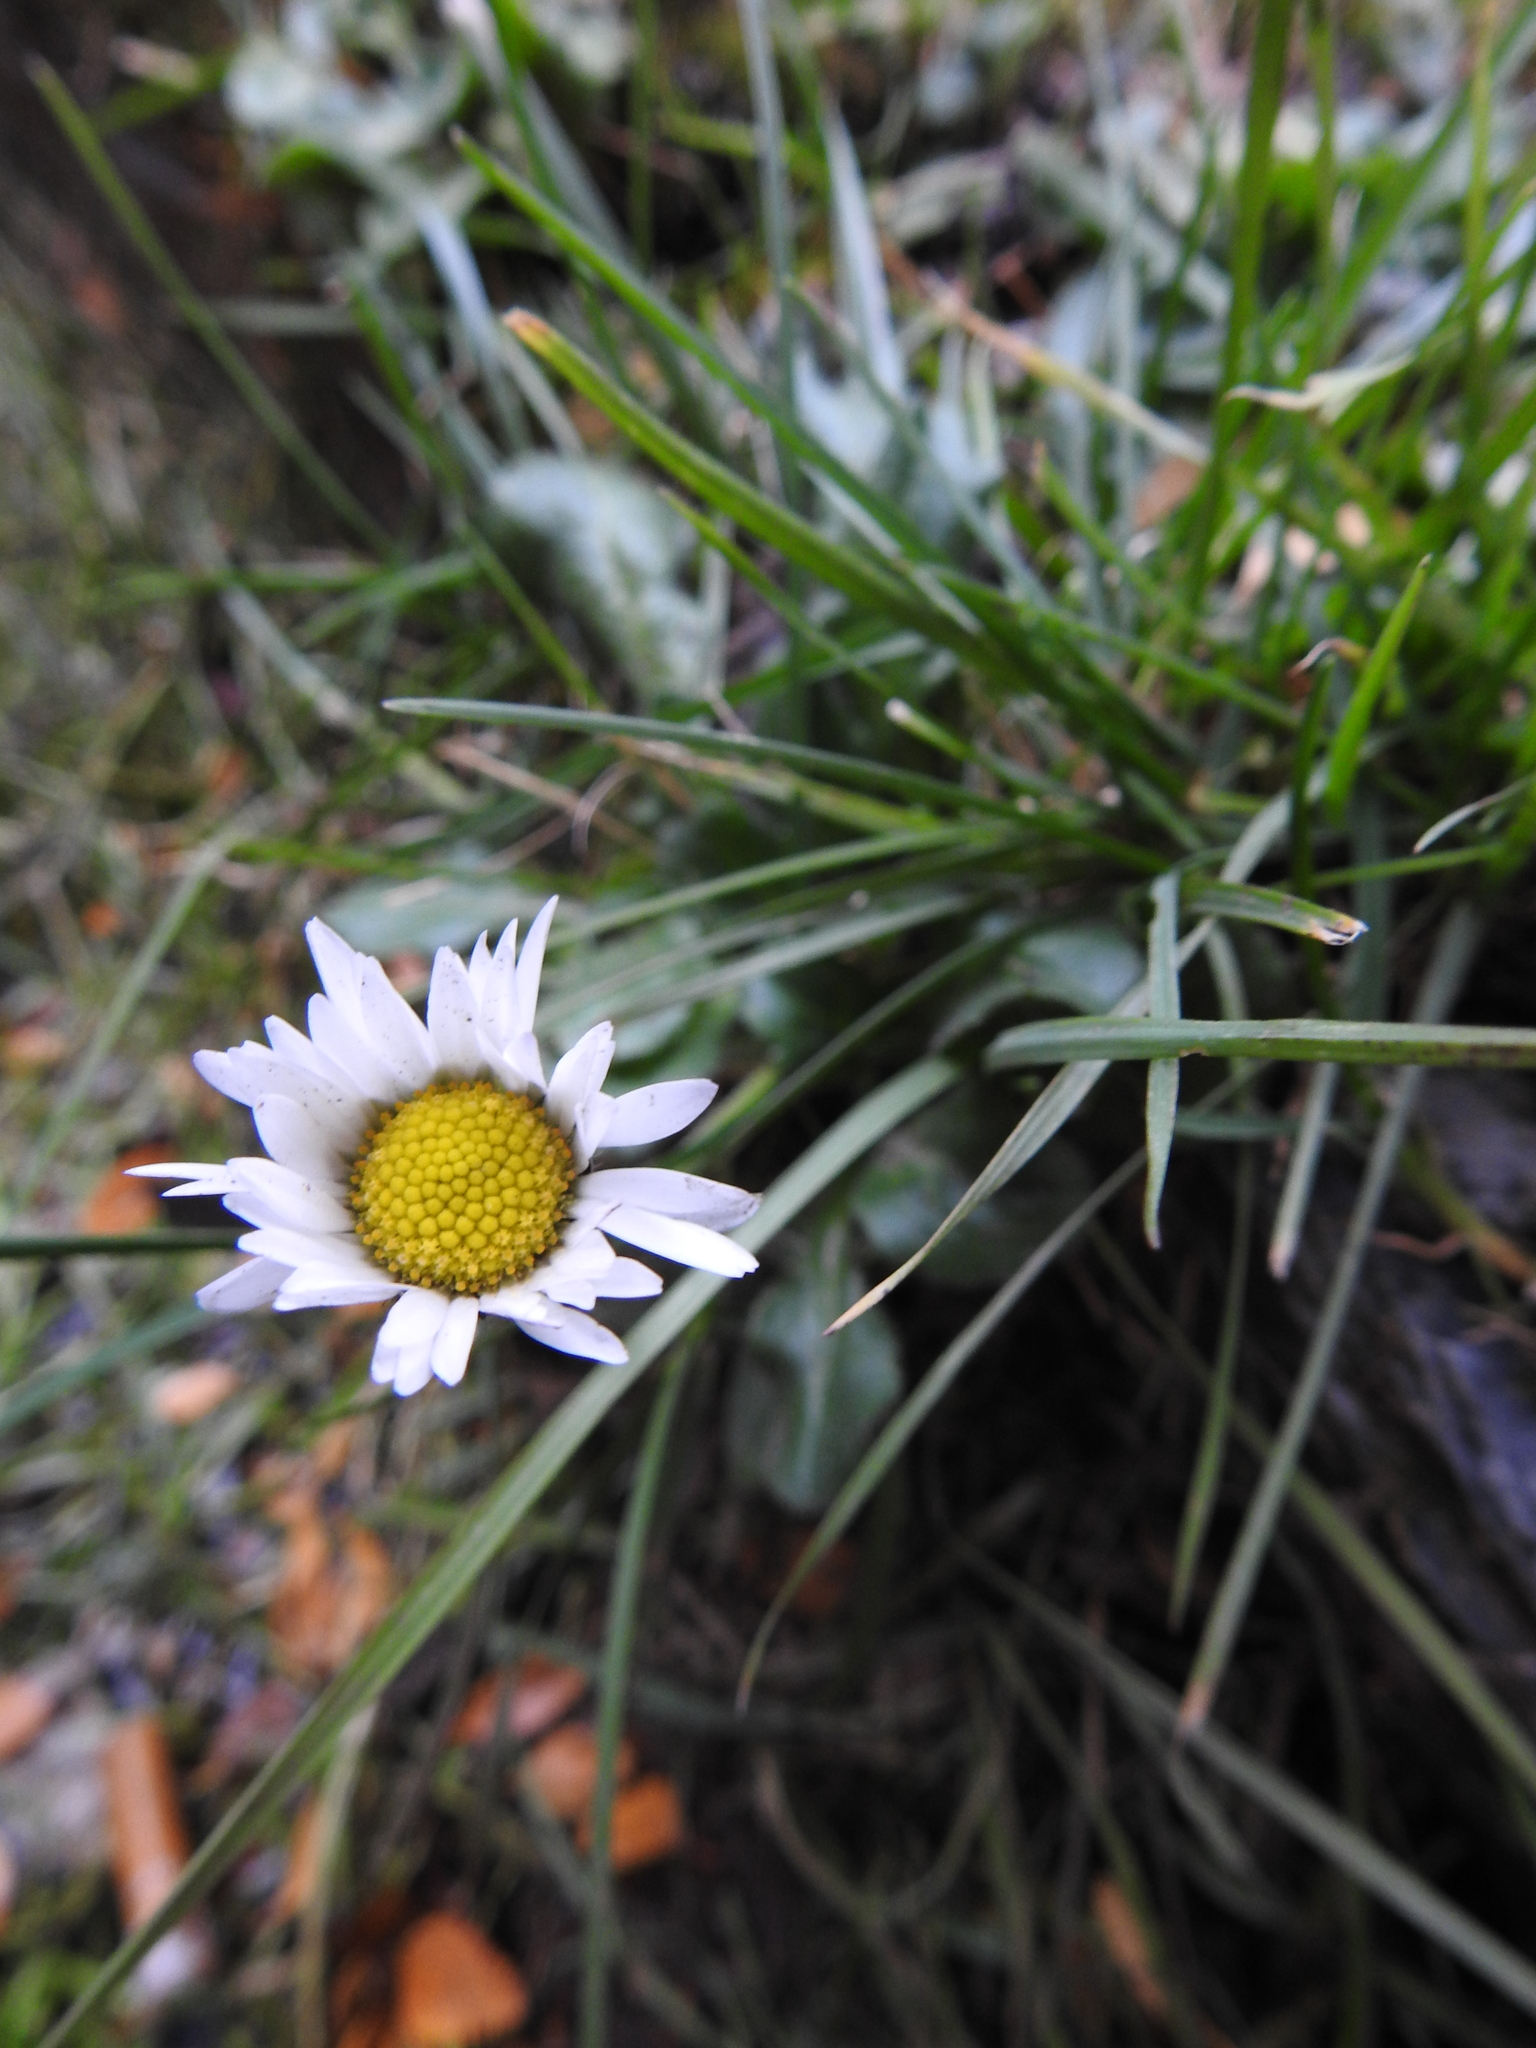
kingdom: Plantae
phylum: Tracheophyta
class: Magnoliopsida
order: Asterales
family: Asteraceae
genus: Bellis
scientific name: Bellis perennis
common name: Lawndaisy
